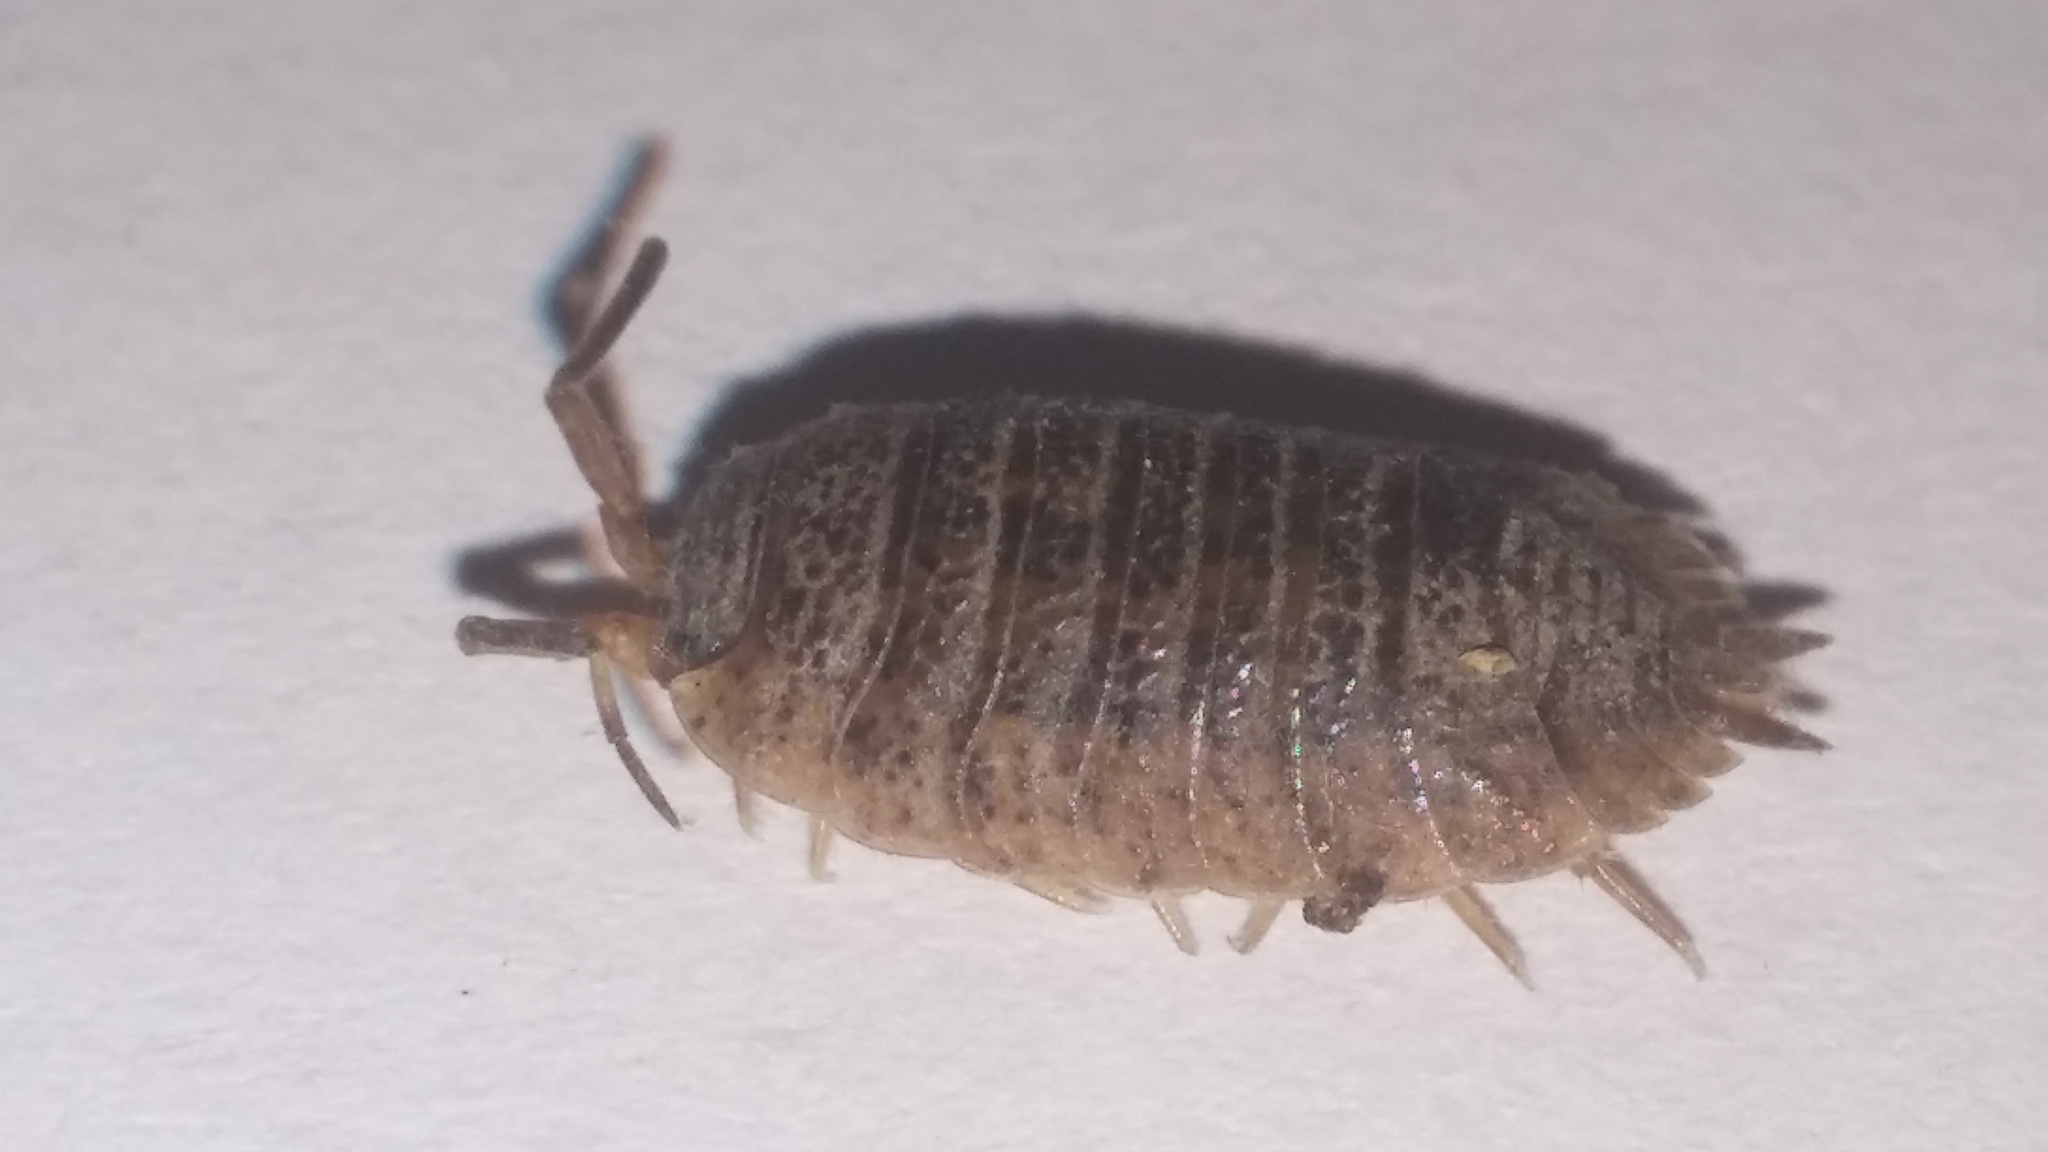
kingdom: Animalia
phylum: Arthropoda
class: Malacostraca
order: Isopoda
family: Porcellionidae
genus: Porcellio
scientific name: Porcellio scaber
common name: Common rough woodlouse
